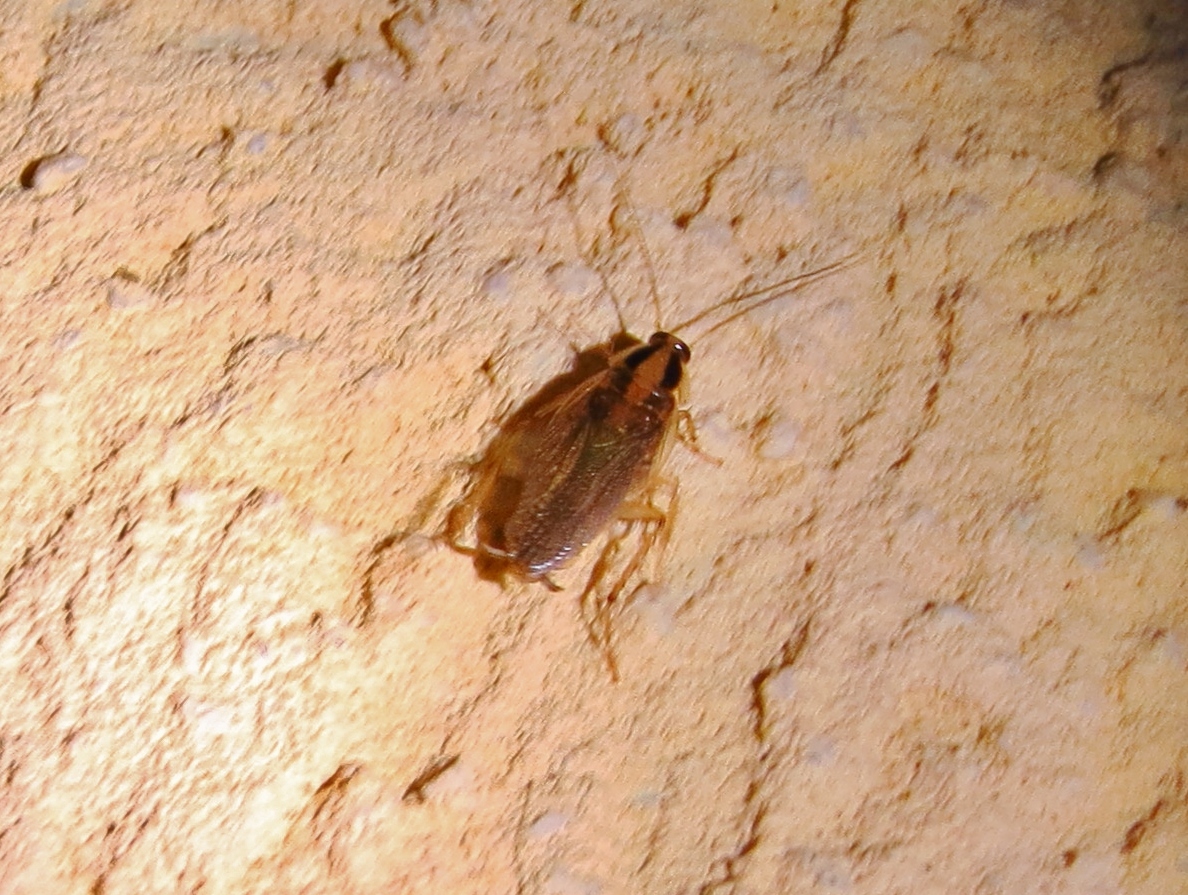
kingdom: Animalia
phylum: Arthropoda
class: Insecta
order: Blattodea
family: Ectobiidae
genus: Blattella
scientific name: Blattella germanica
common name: German cockroach
